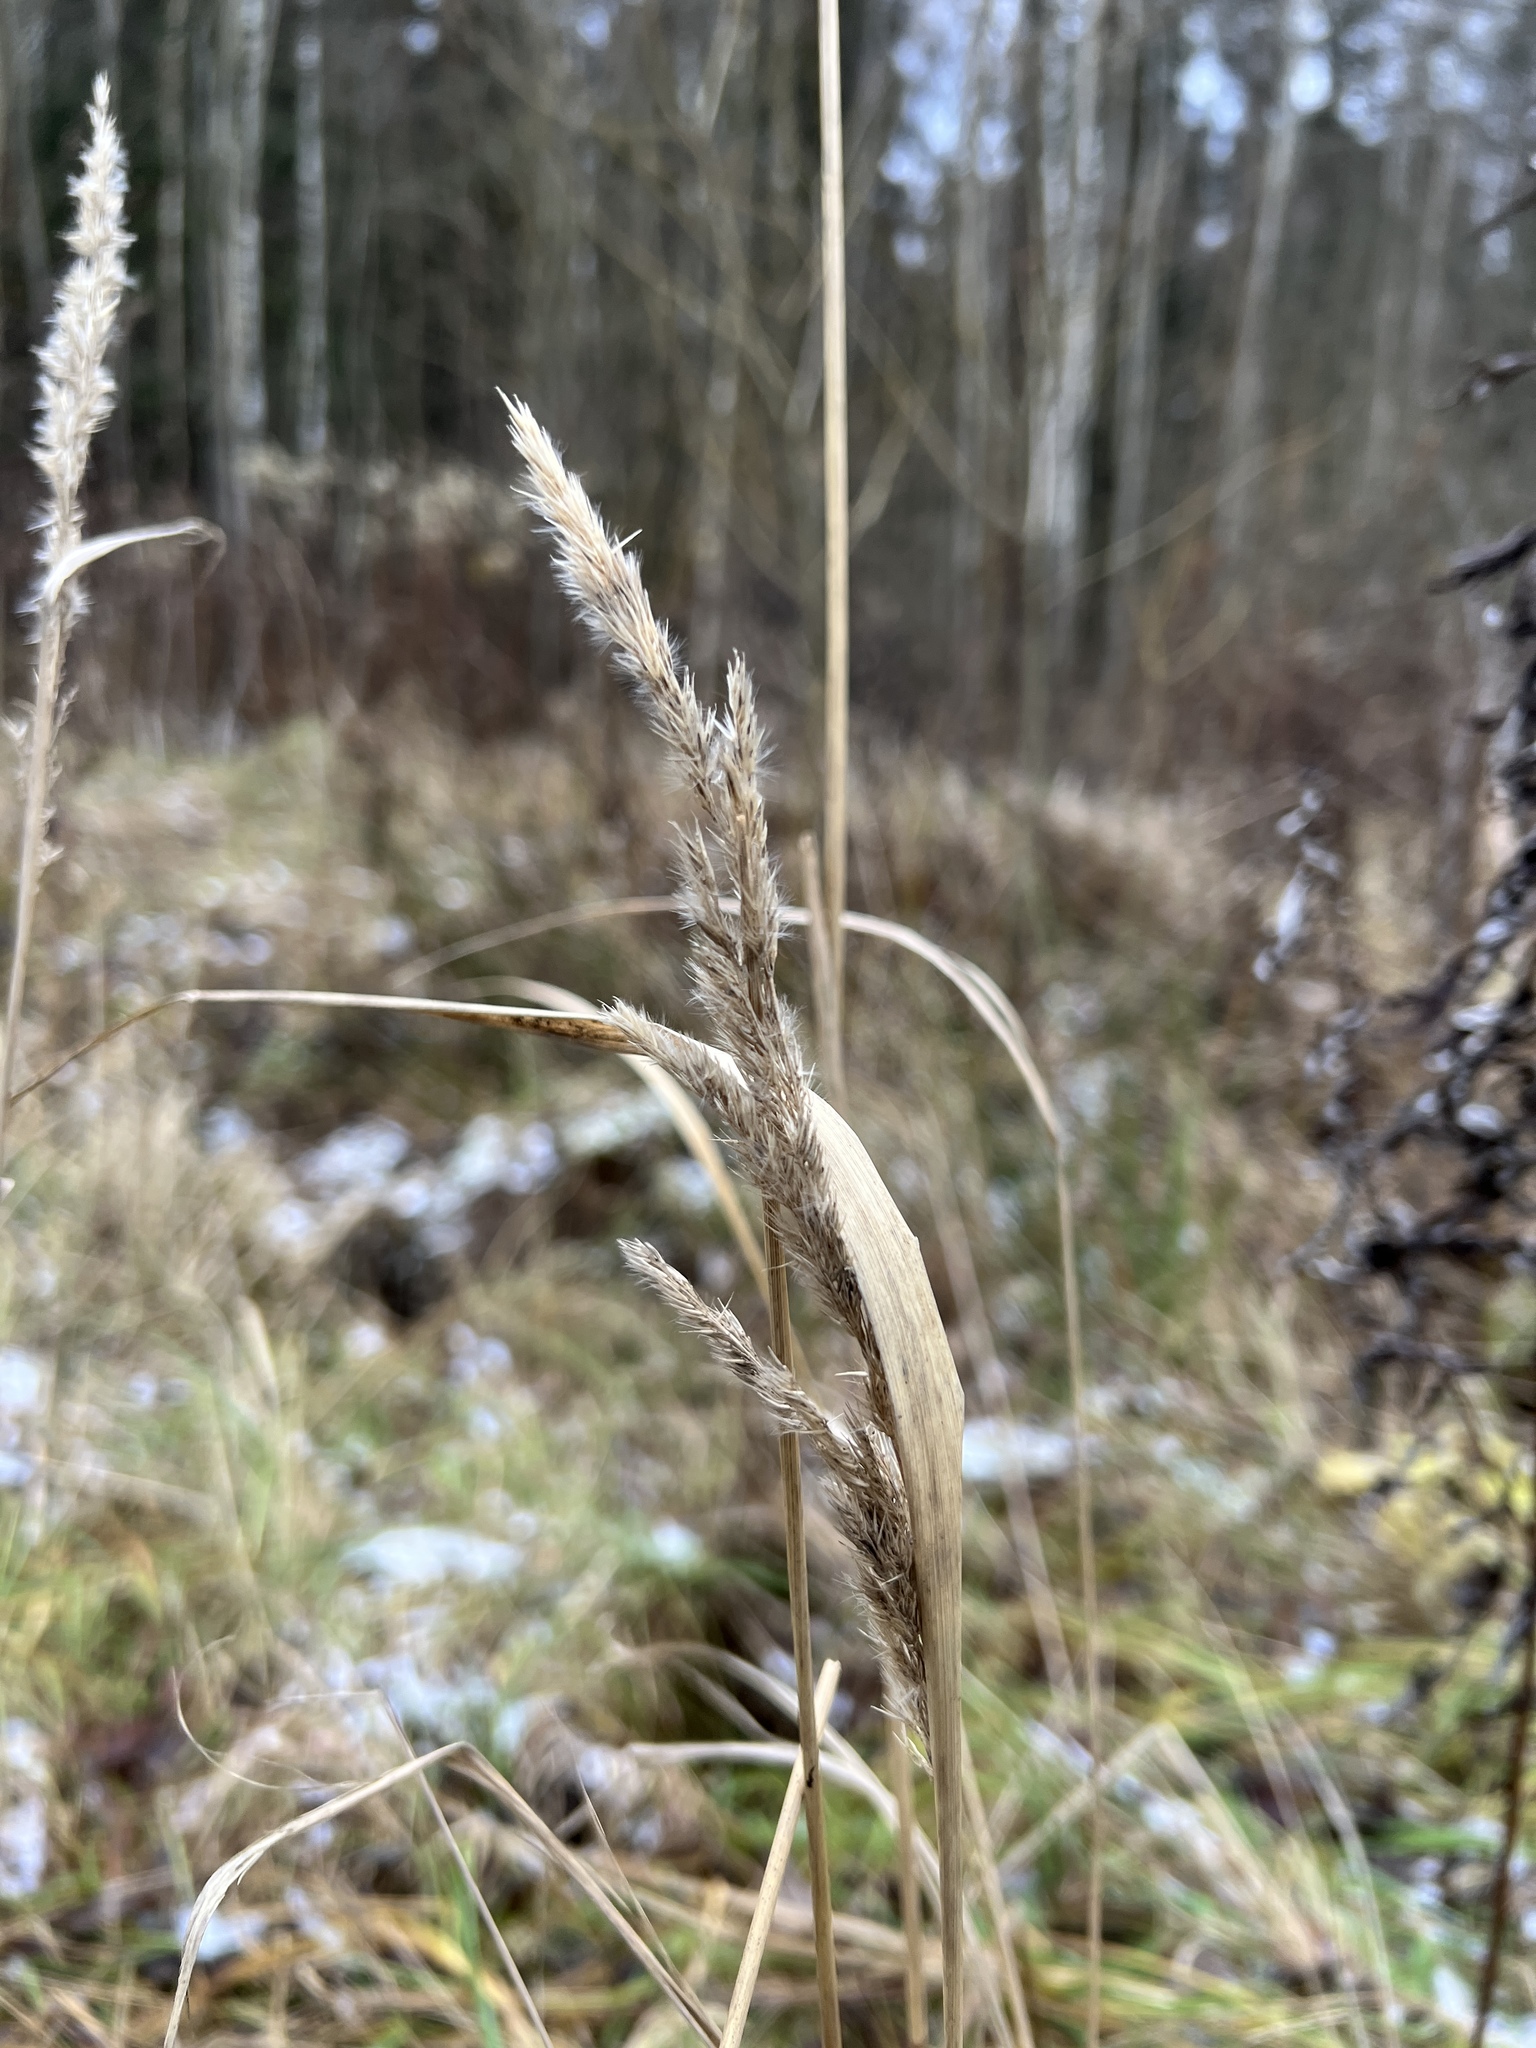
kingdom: Plantae
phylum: Tracheophyta
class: Liliopsida
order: Poales
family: Poaceae
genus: Calamagrostis
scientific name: Calamagrostis epigejos
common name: Wood small-reed
